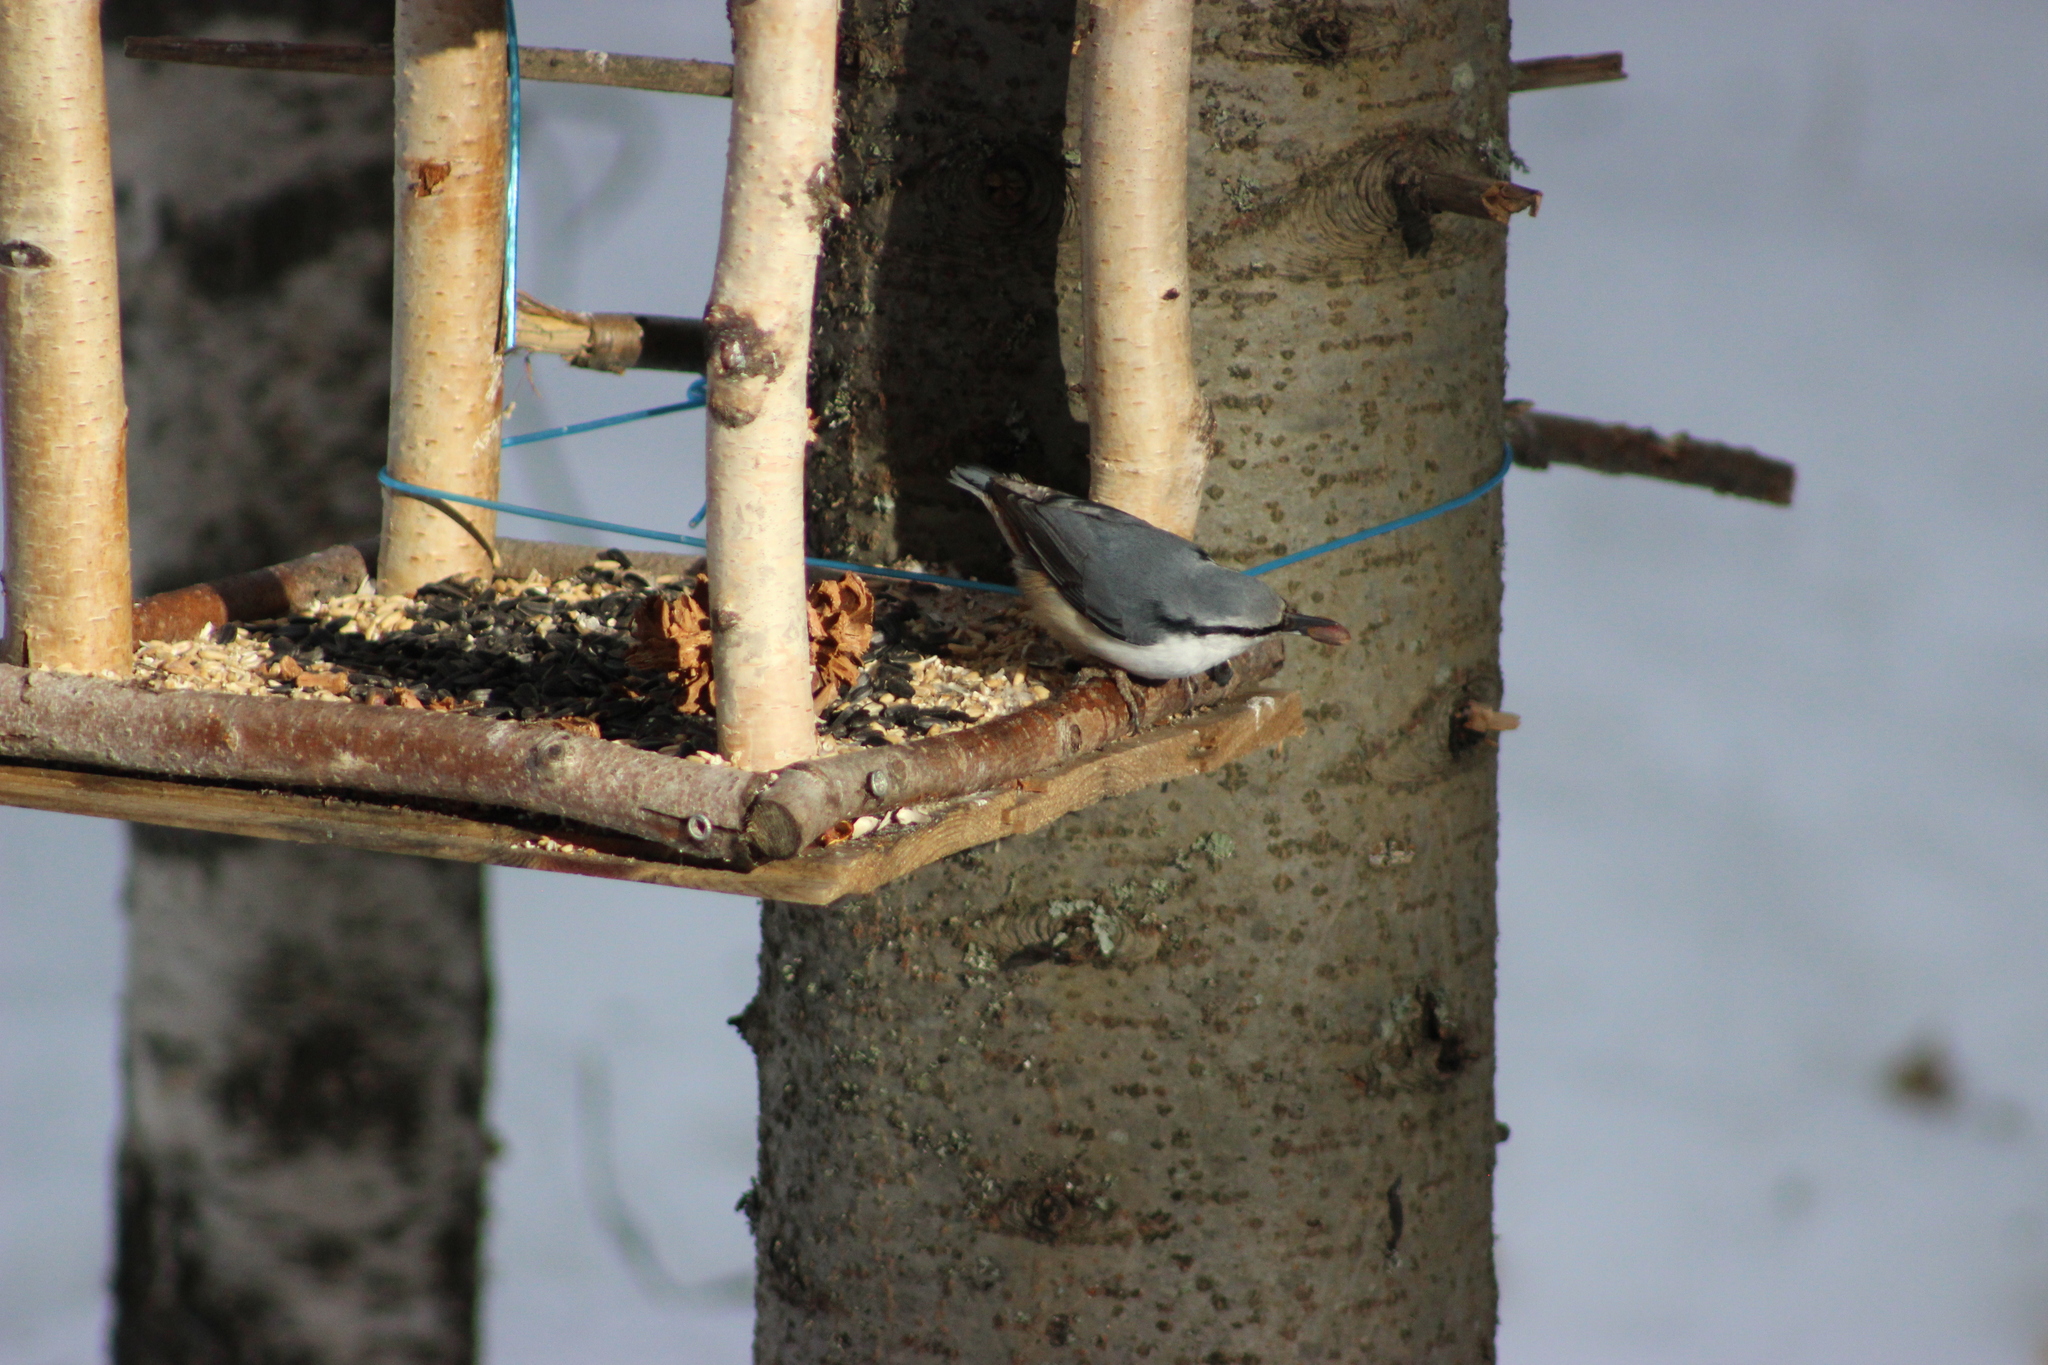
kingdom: Animalia
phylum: Chordata
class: Aves
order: Passeriformes
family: Sittidae
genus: Sitta
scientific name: Sitta europaea
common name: Eurasian nuthatch
